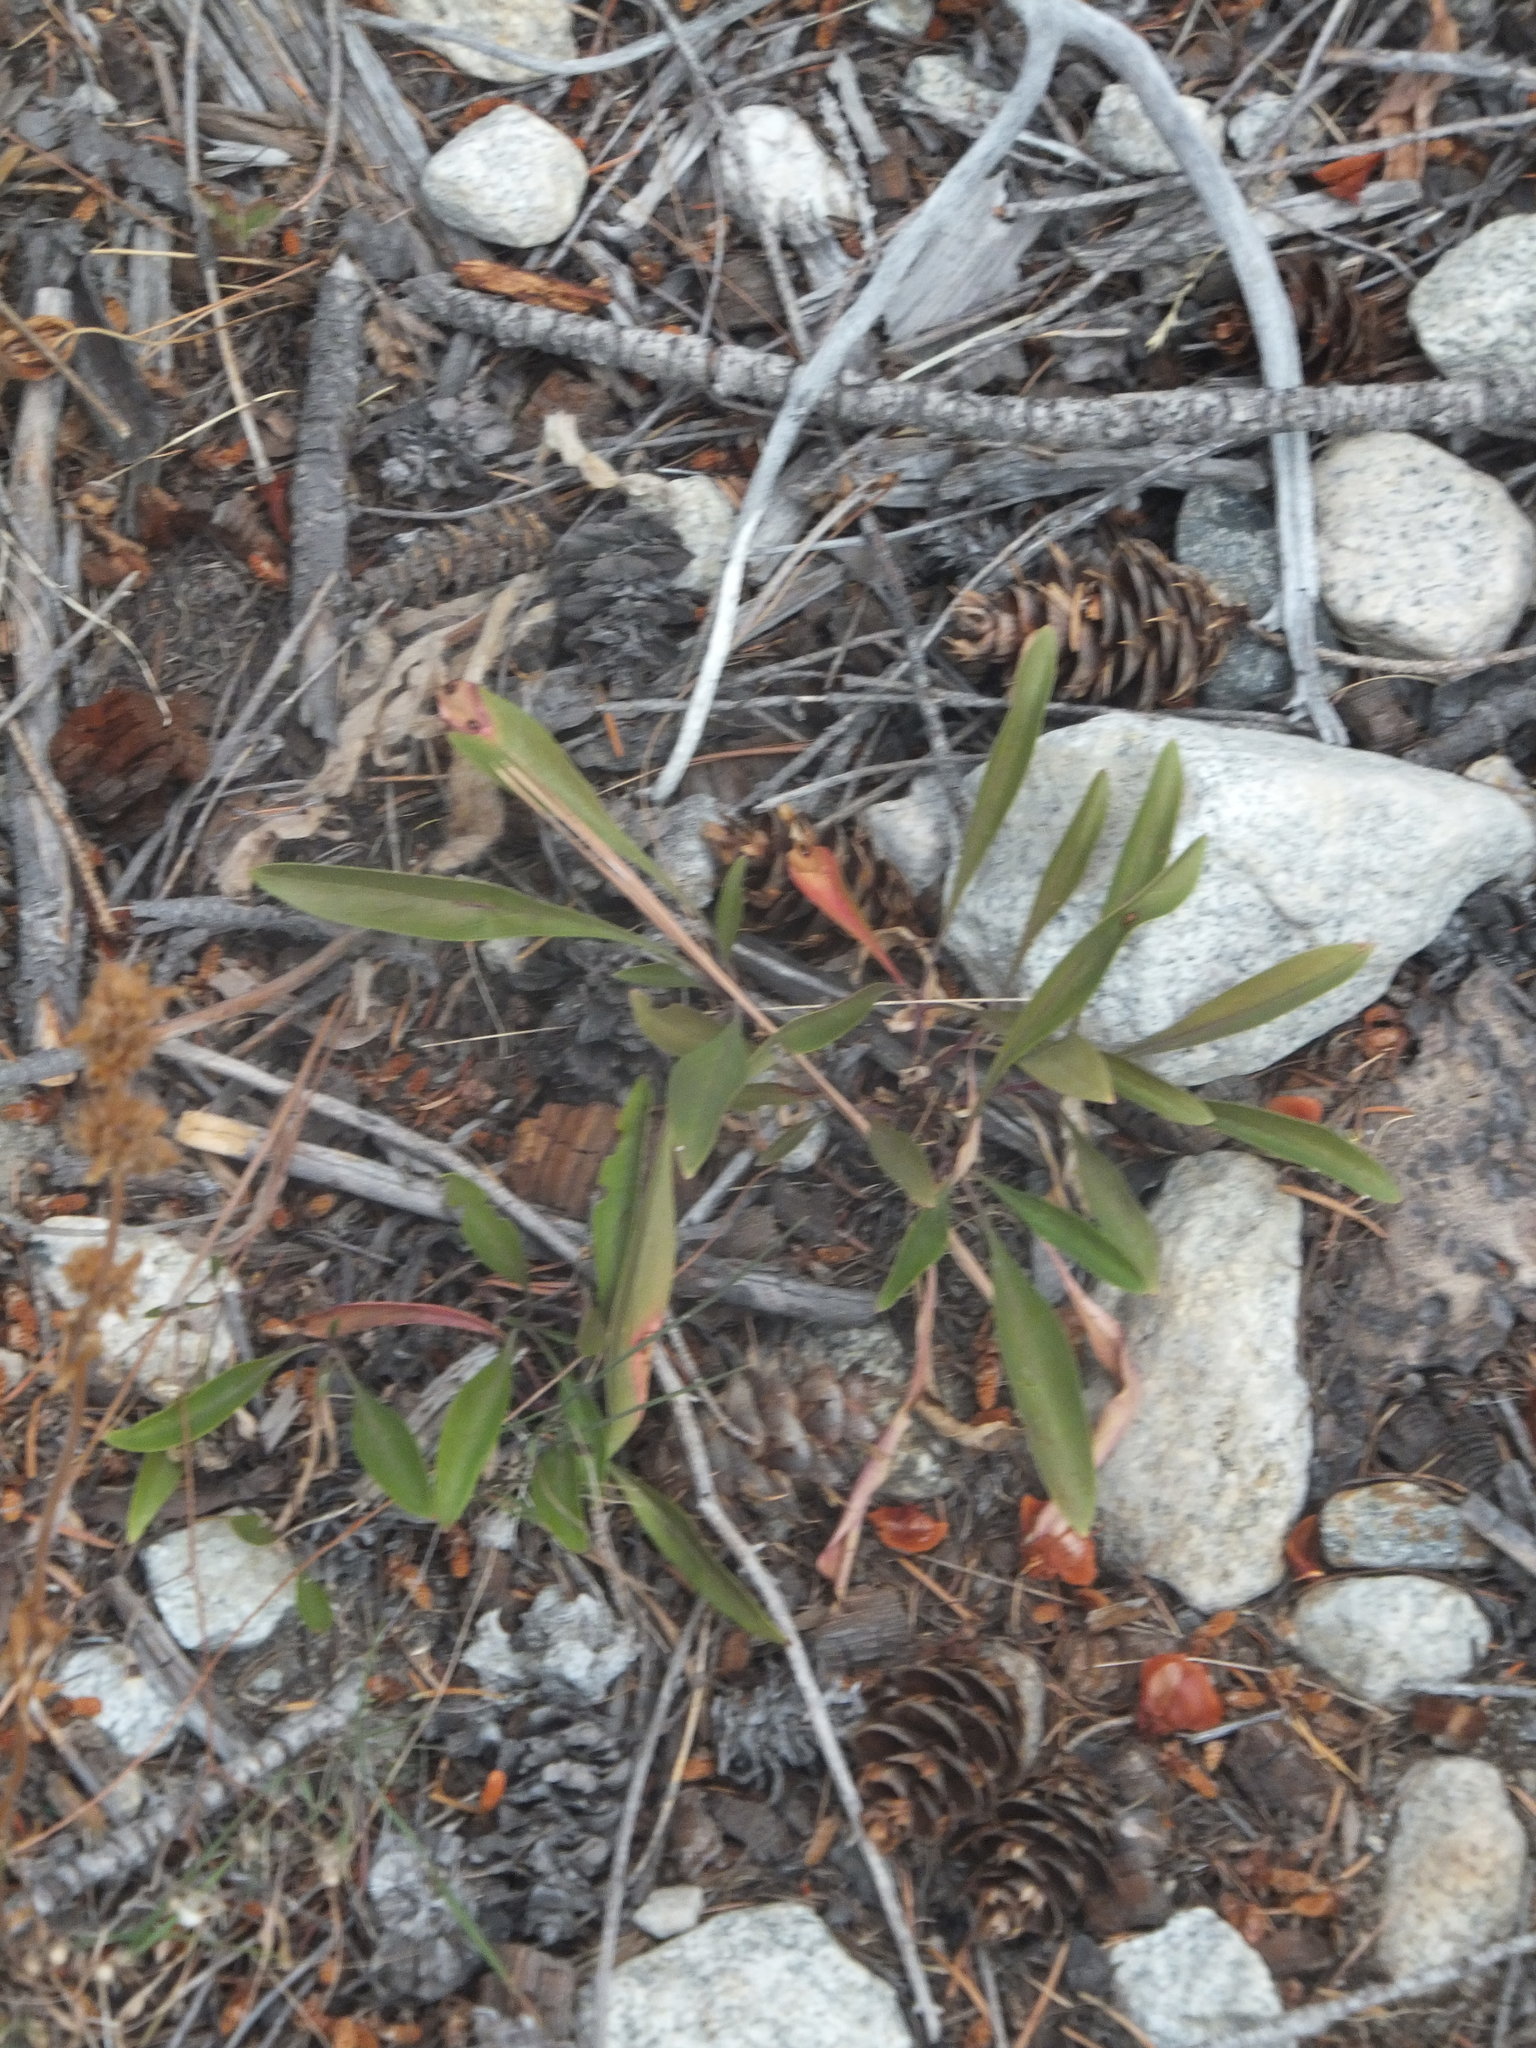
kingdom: Plantae
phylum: Tracheophyta
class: Magnoliopsida
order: Lamiales
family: Plantaginaceae
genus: Penstemon
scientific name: Penstemon confertus
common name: Lesser yellow beardtongue
